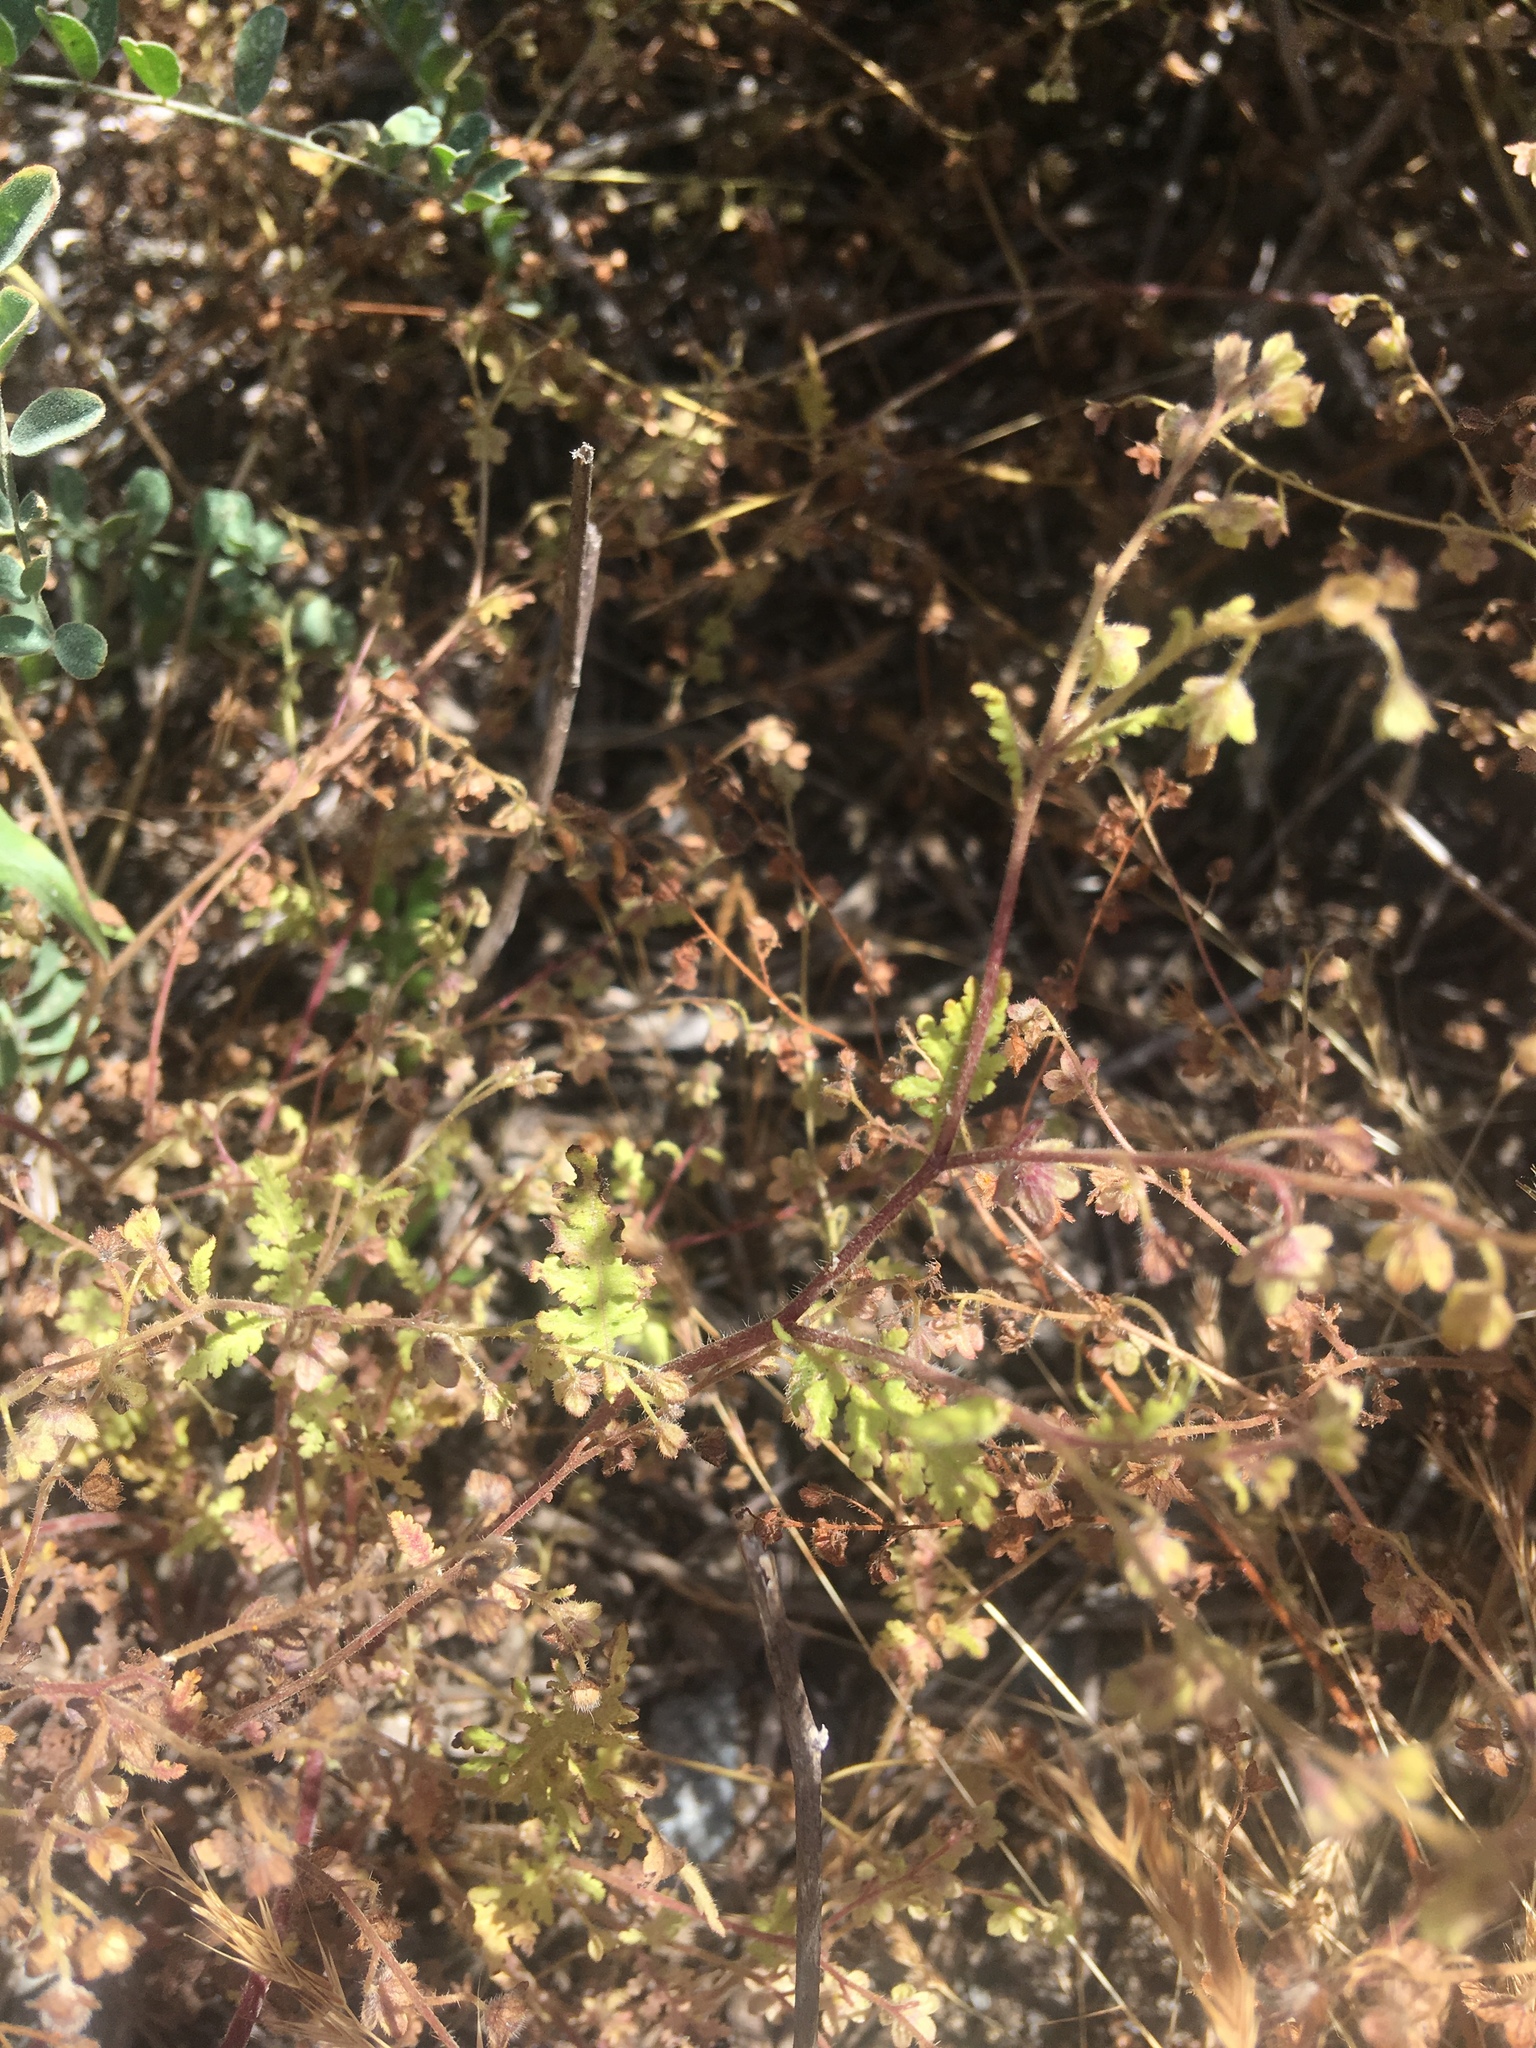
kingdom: Plantae
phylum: Tracheophyta
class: Magnoliopsida
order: Boraginales
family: Hydrophyllaceae
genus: Eucrypta
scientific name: Eucrypta chrysanthemifolia
